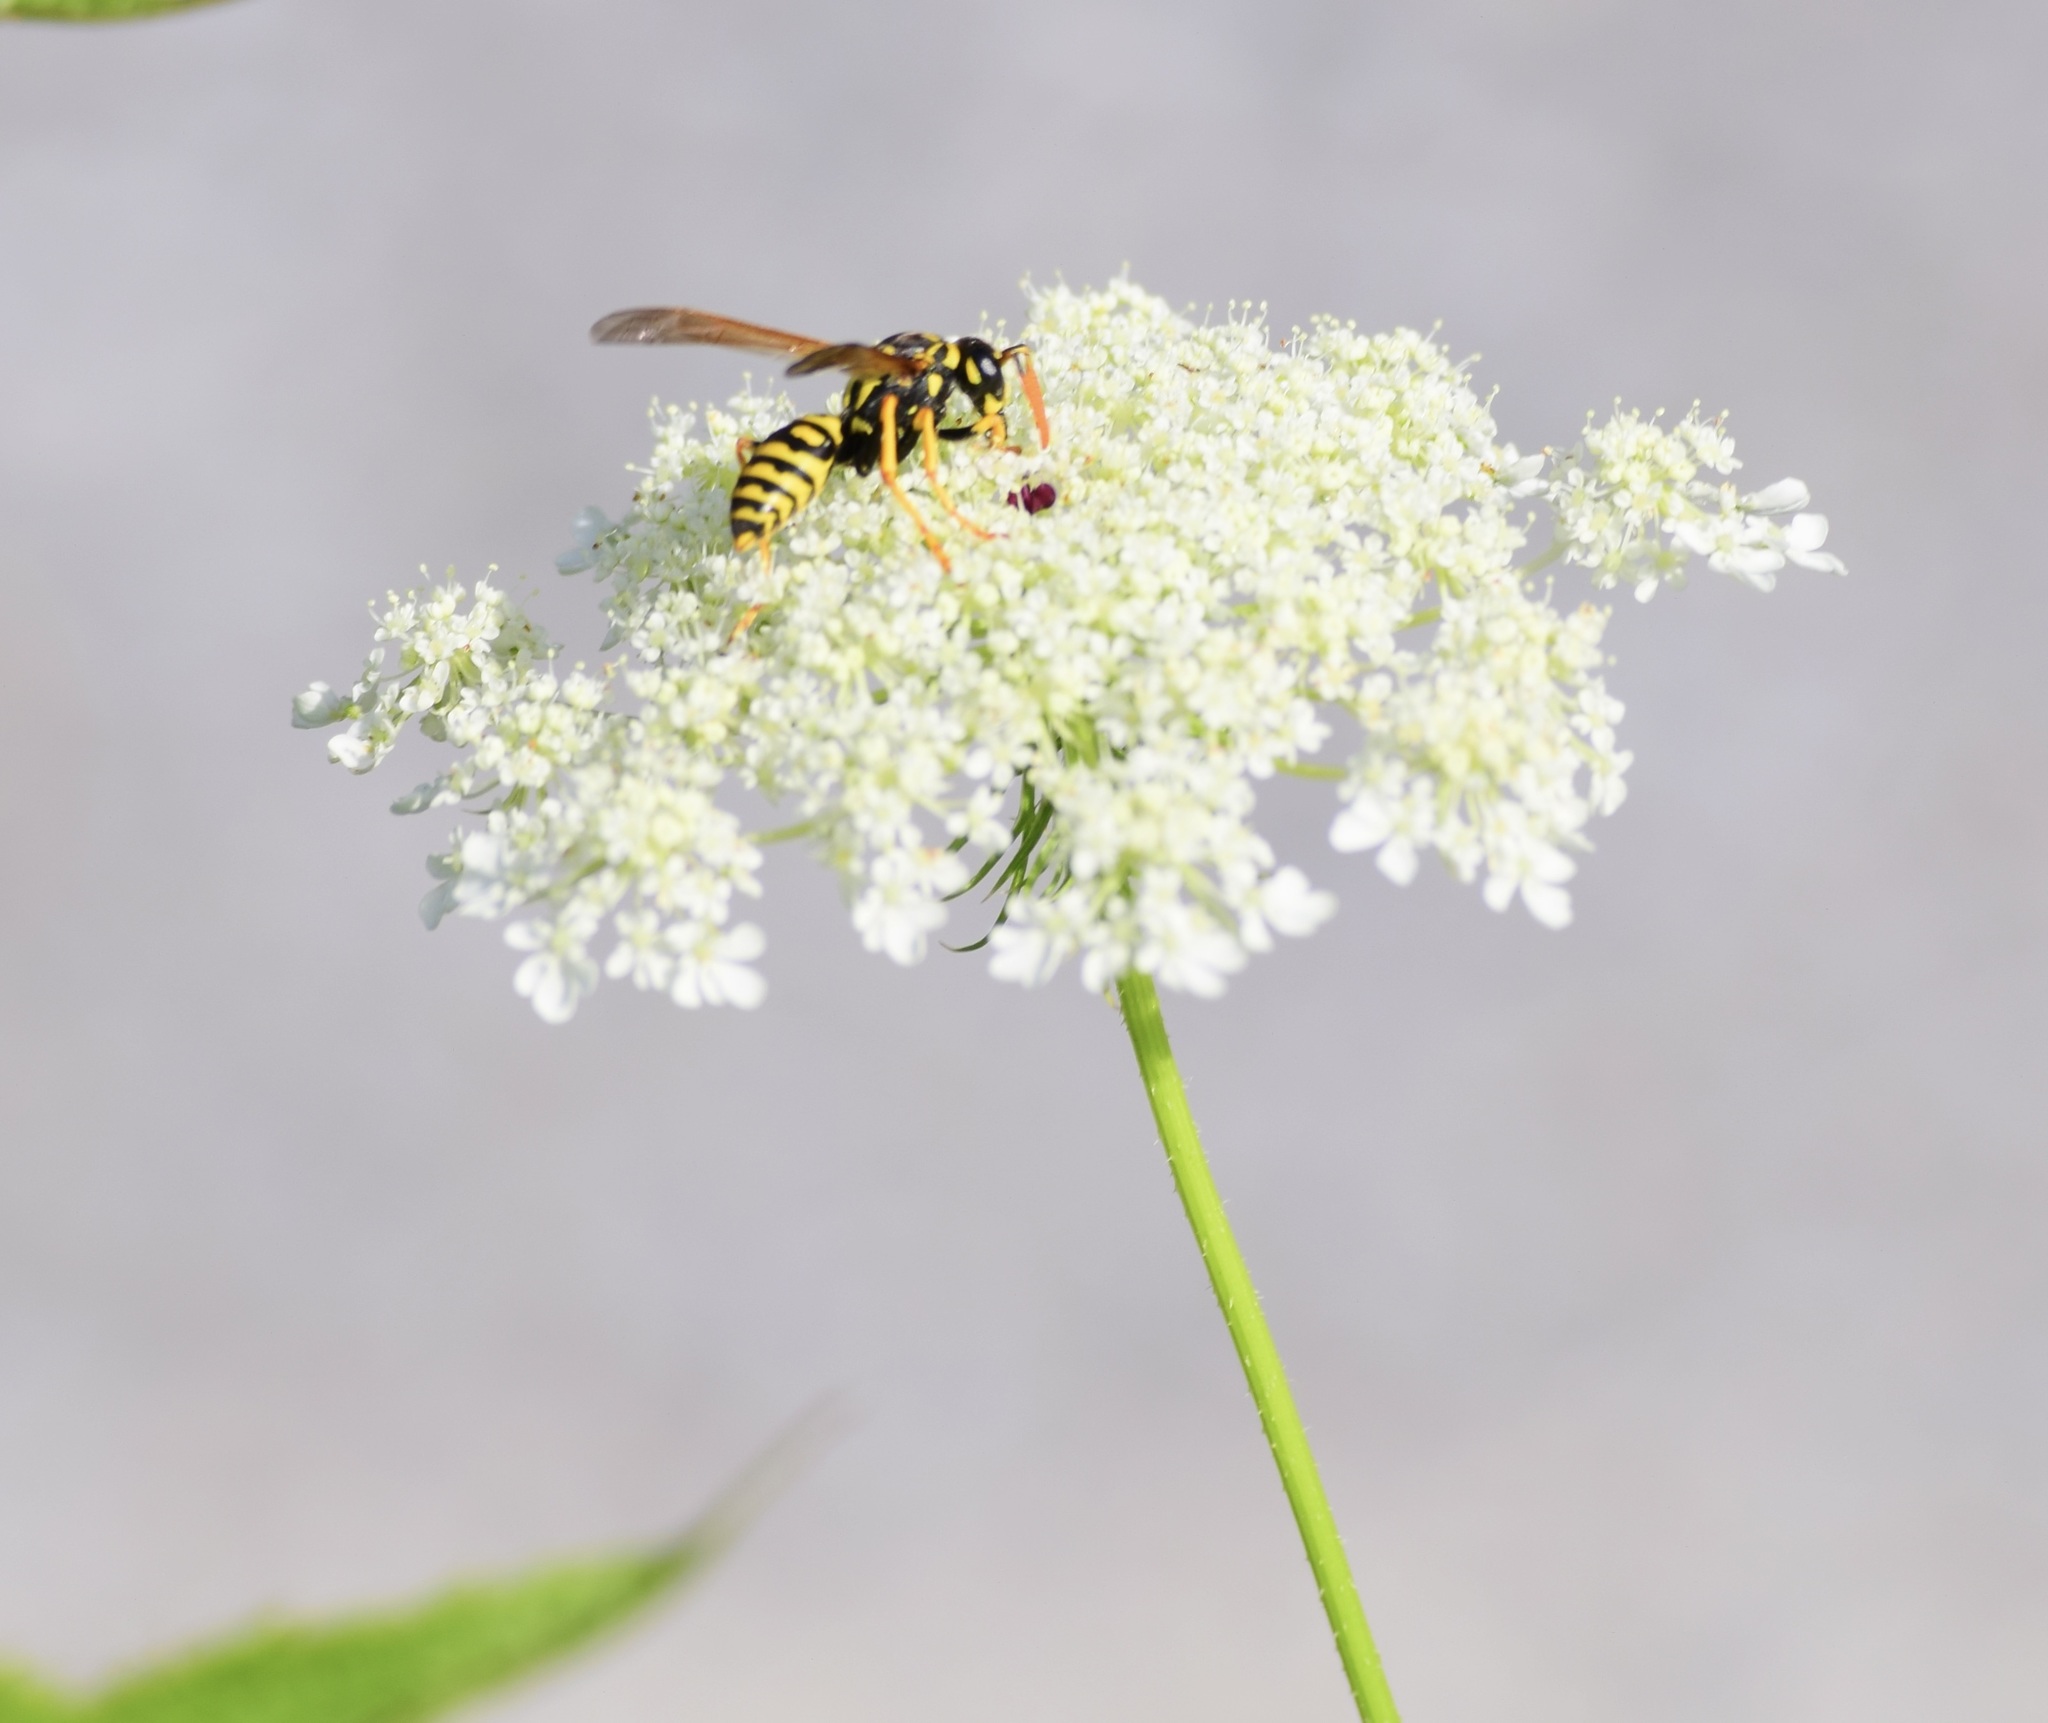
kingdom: Animalia
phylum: Arthropoda
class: Insecta
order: Hymenoptera
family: Eumenidae
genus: Polistes
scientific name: Polistes dominula
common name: Paper wasp
